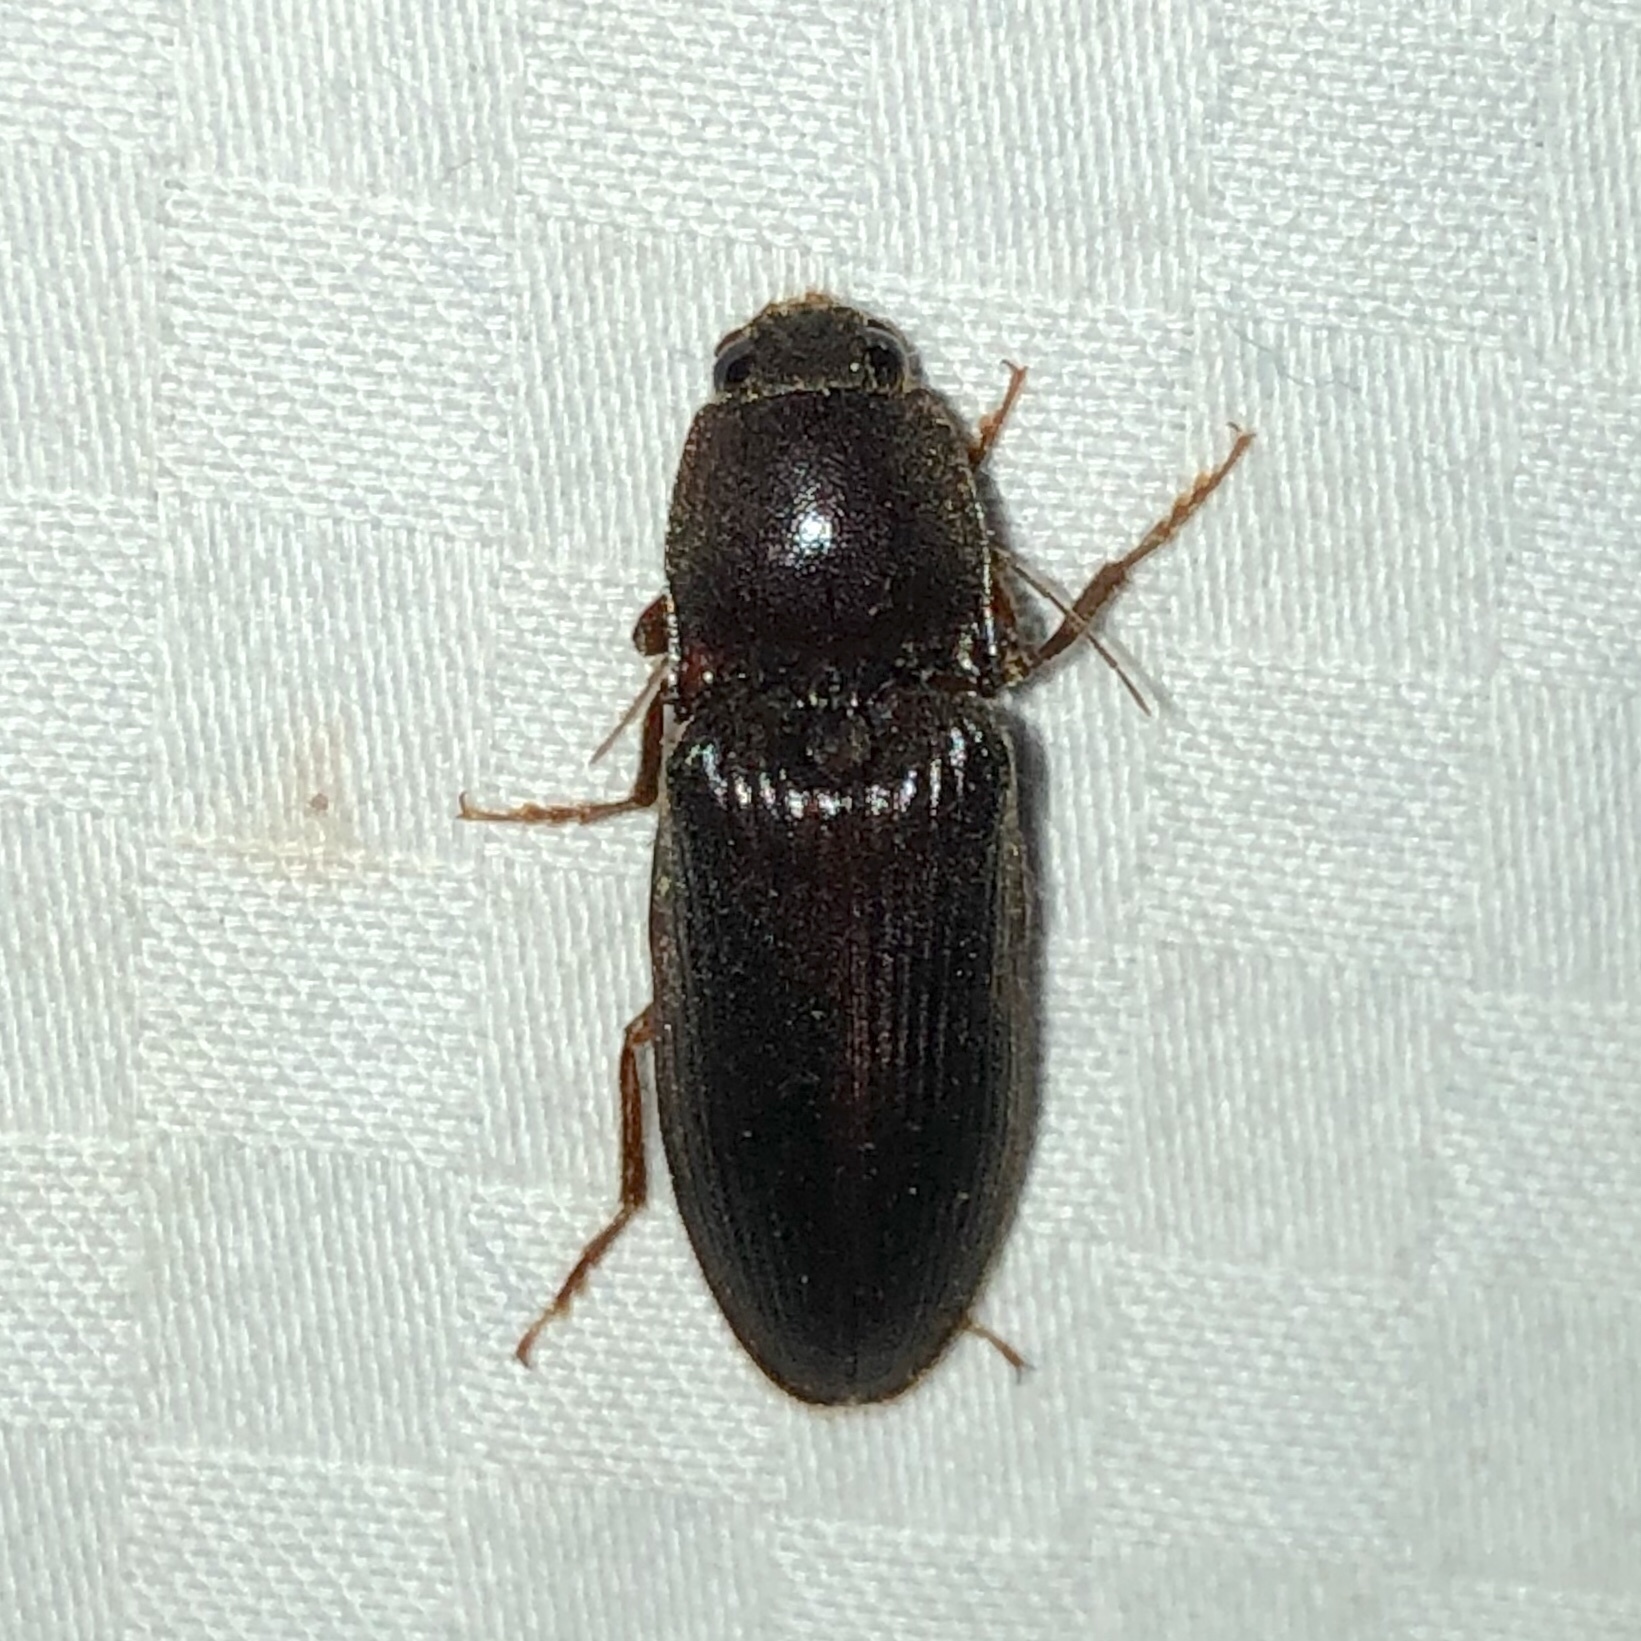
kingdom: Animalia
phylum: Arthropoda
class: Insecta
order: Coleoptera
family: Elateridae
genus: Hemicrepidius
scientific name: Hemicrepidius
